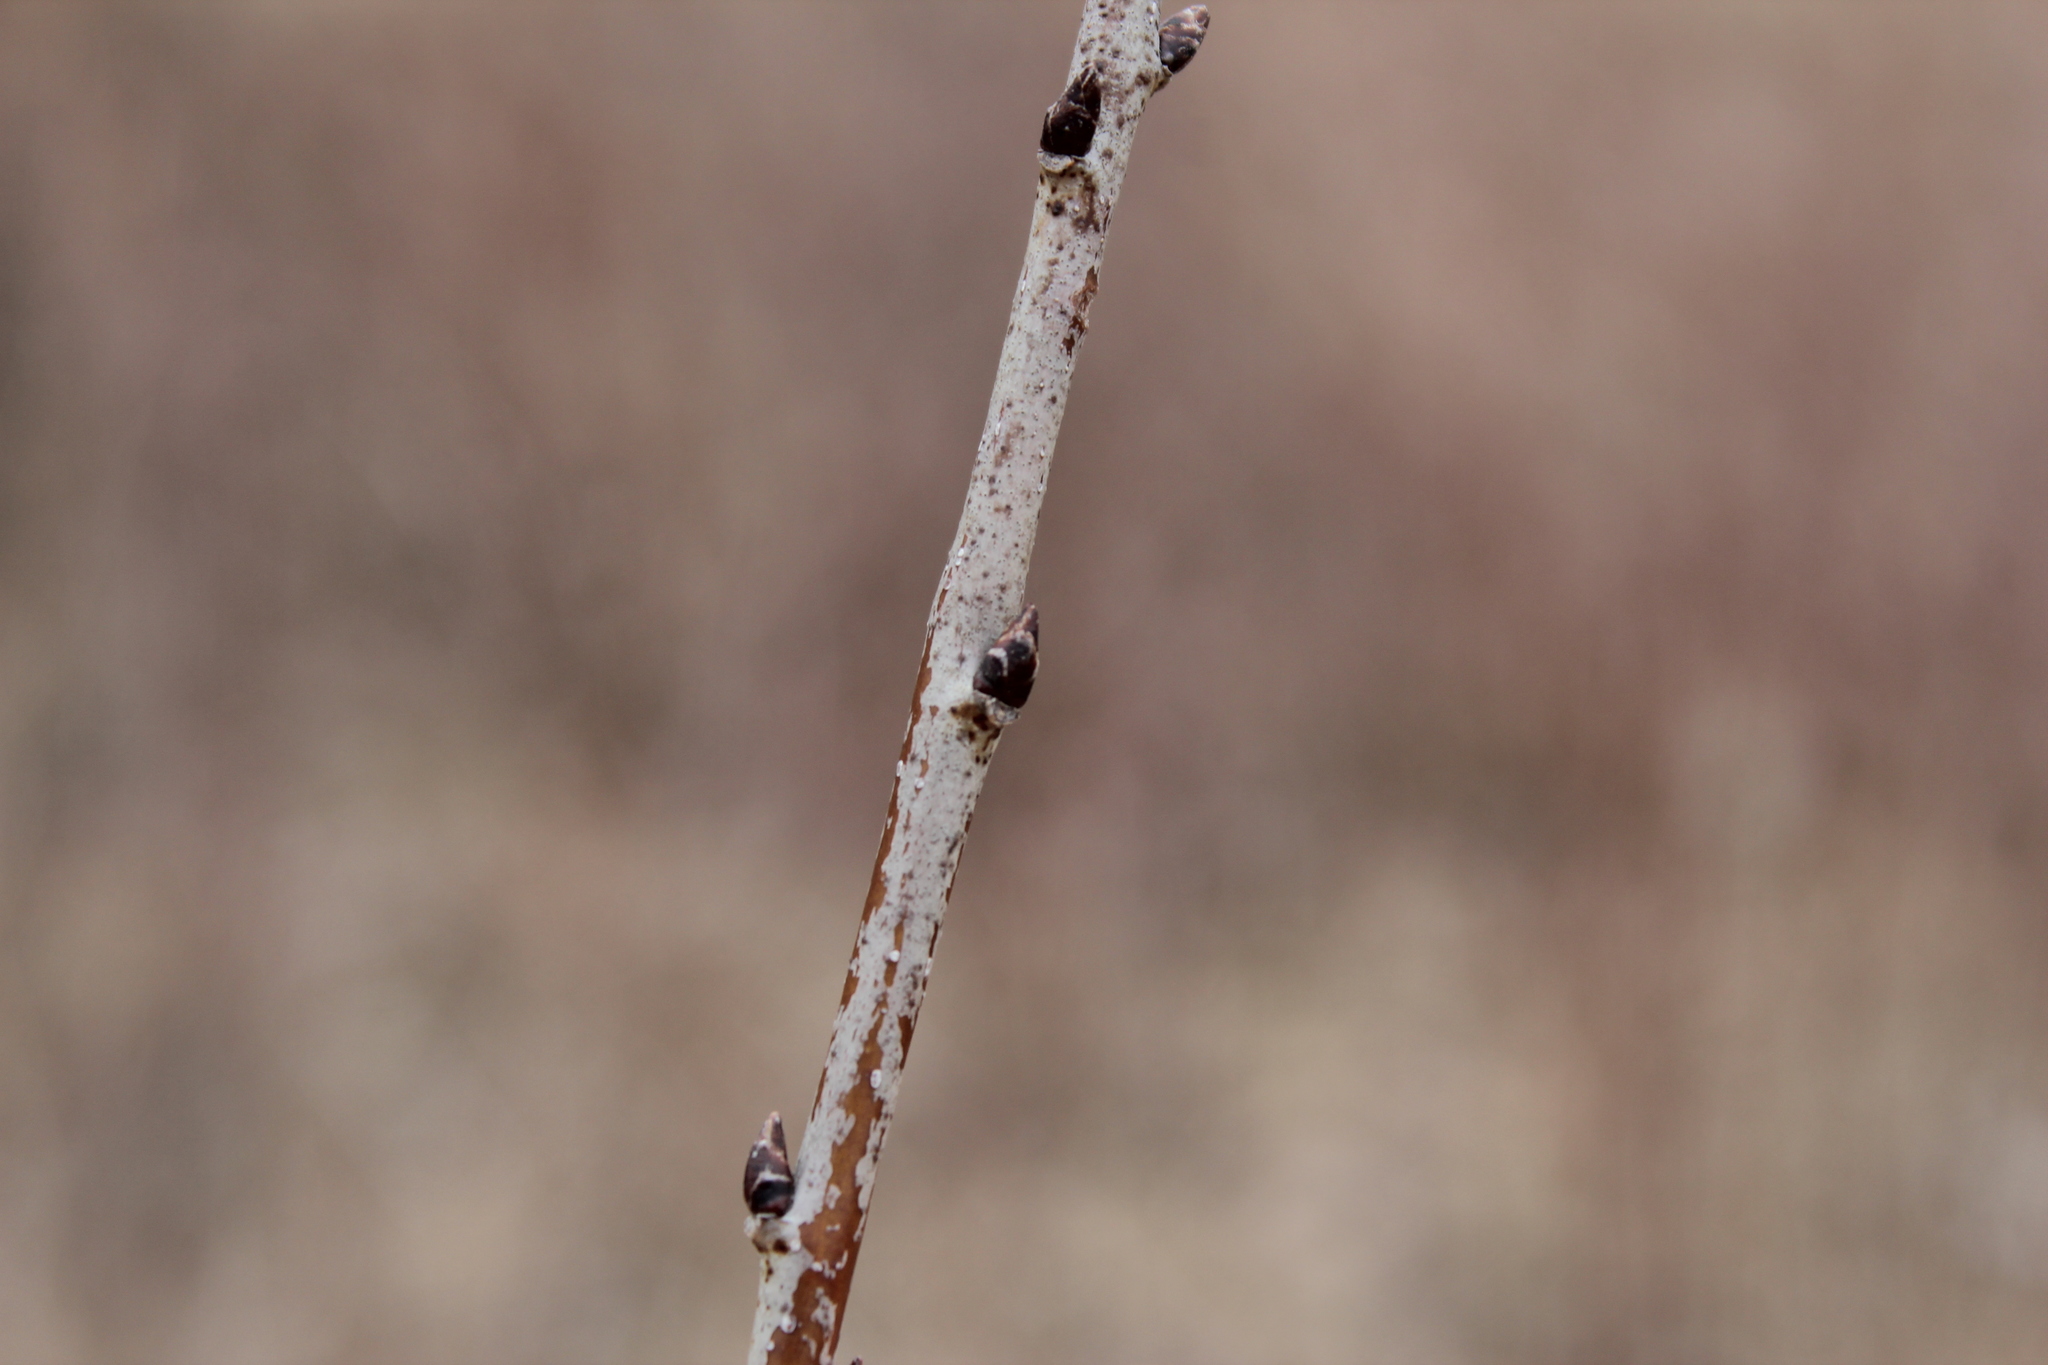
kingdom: Plantae
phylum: Tracheophyta
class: Magnoliopsida
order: Rosales
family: Rhamnaceae
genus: Rhamnus
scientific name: Rhamnus cathartica
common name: Common buckthorn
